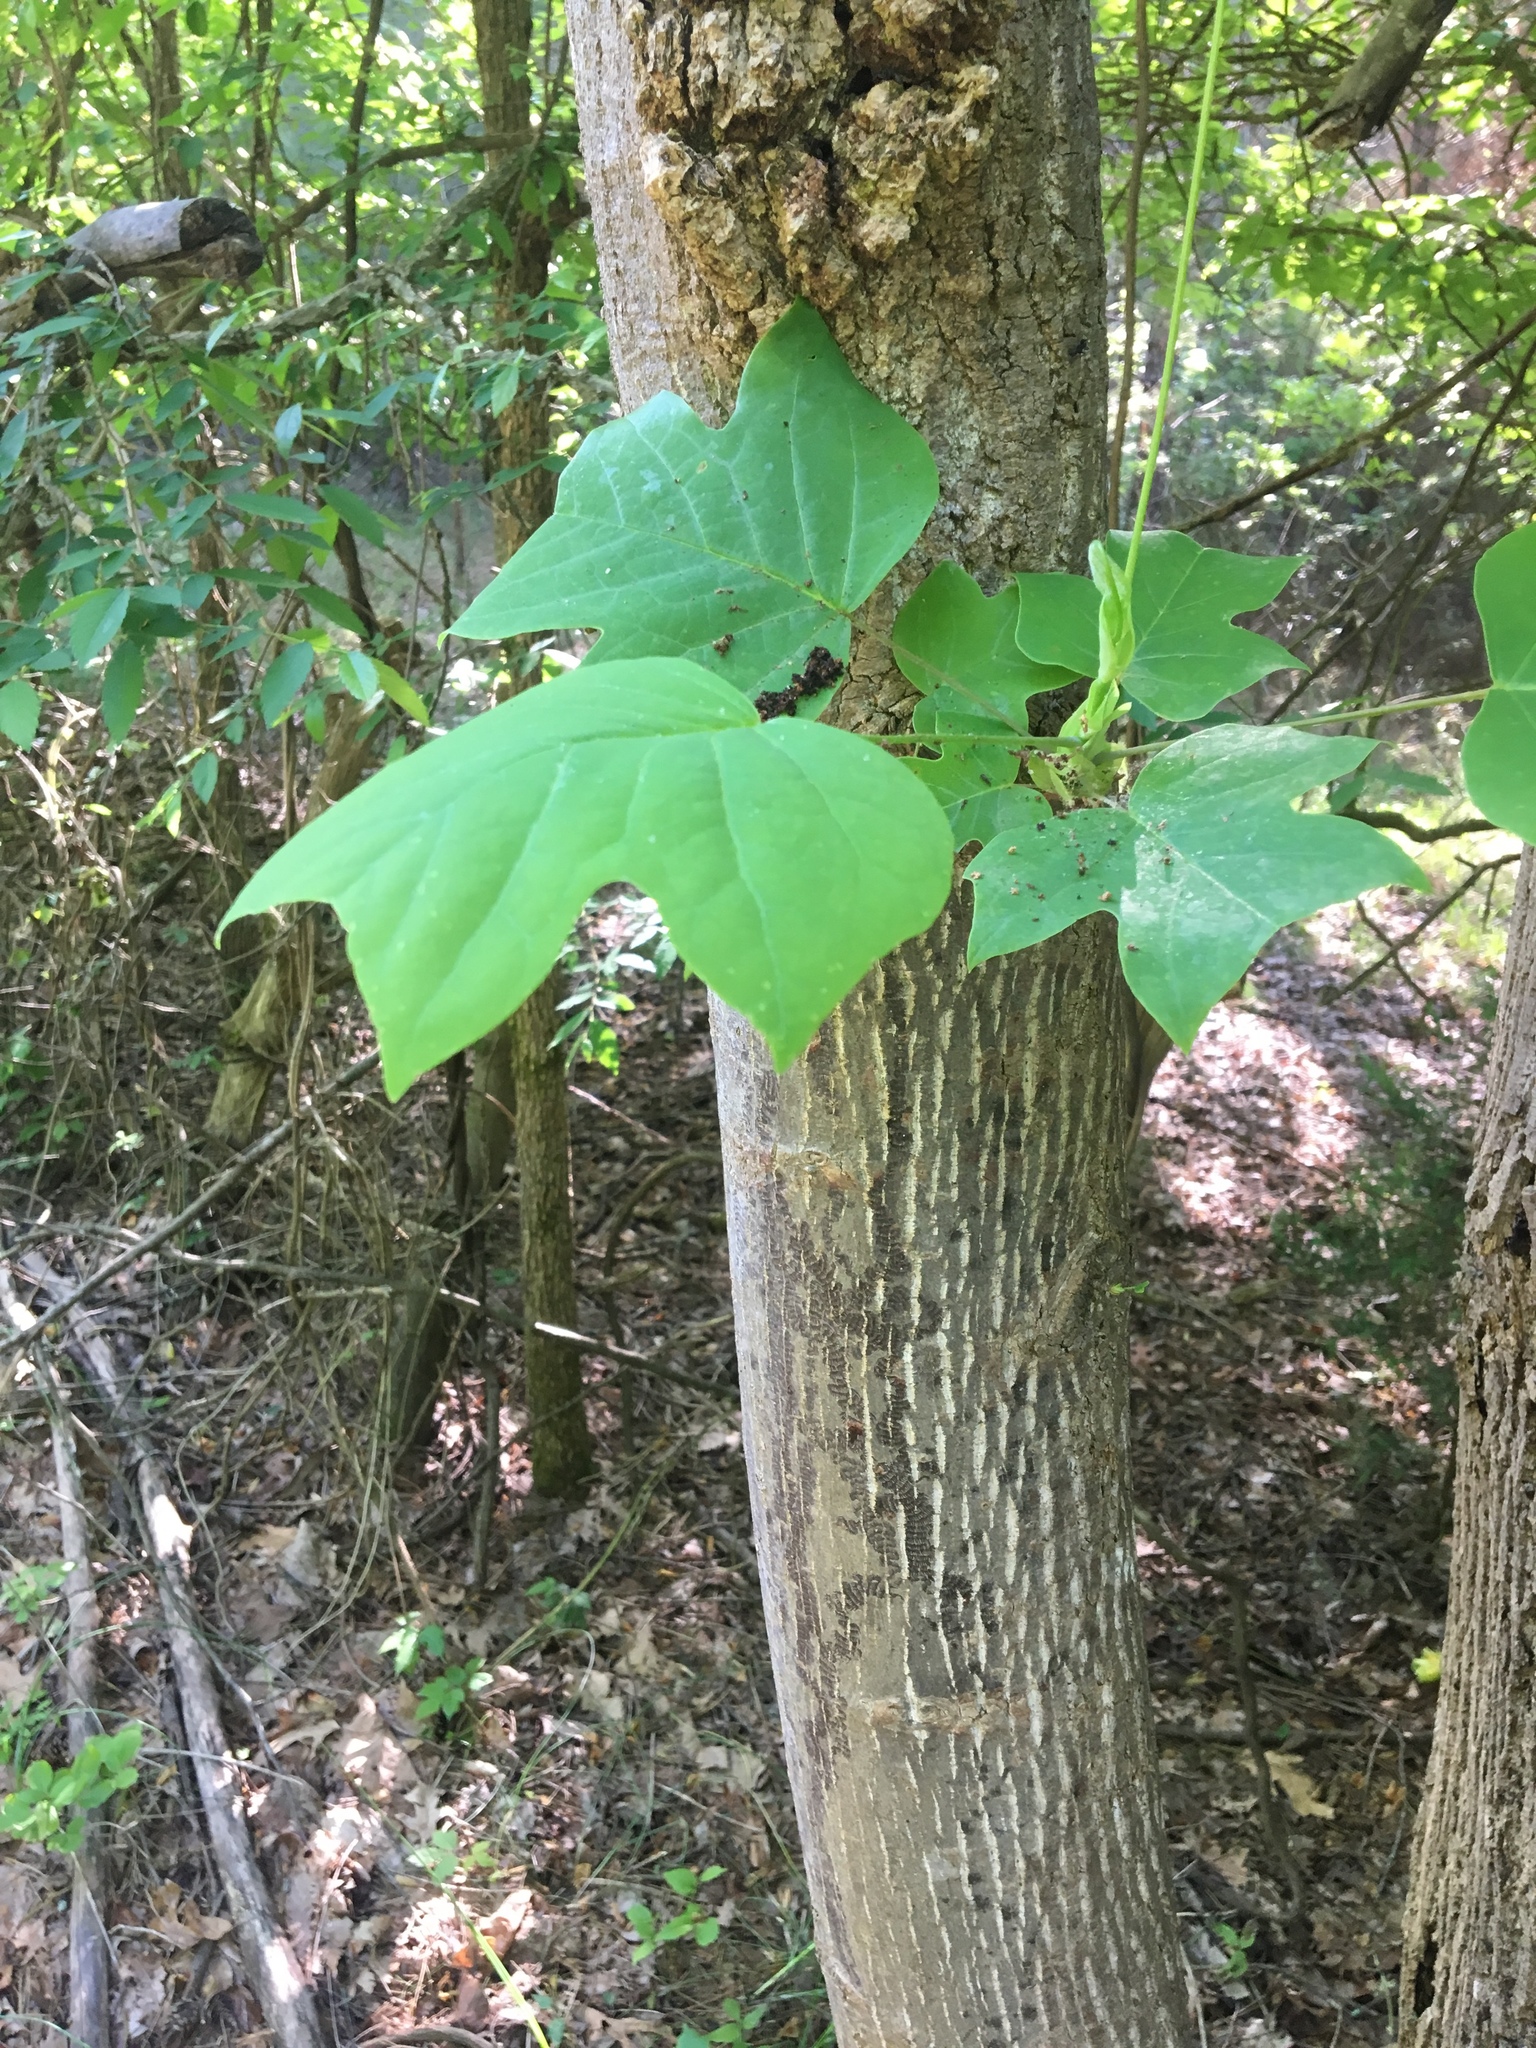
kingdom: Plantae
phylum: Tracheophyta
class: Magnoliopsida
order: Magnoliales
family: Magnoliaceae
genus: Liriodendron
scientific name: Liriodendron tulipifera
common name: Tulip tree
